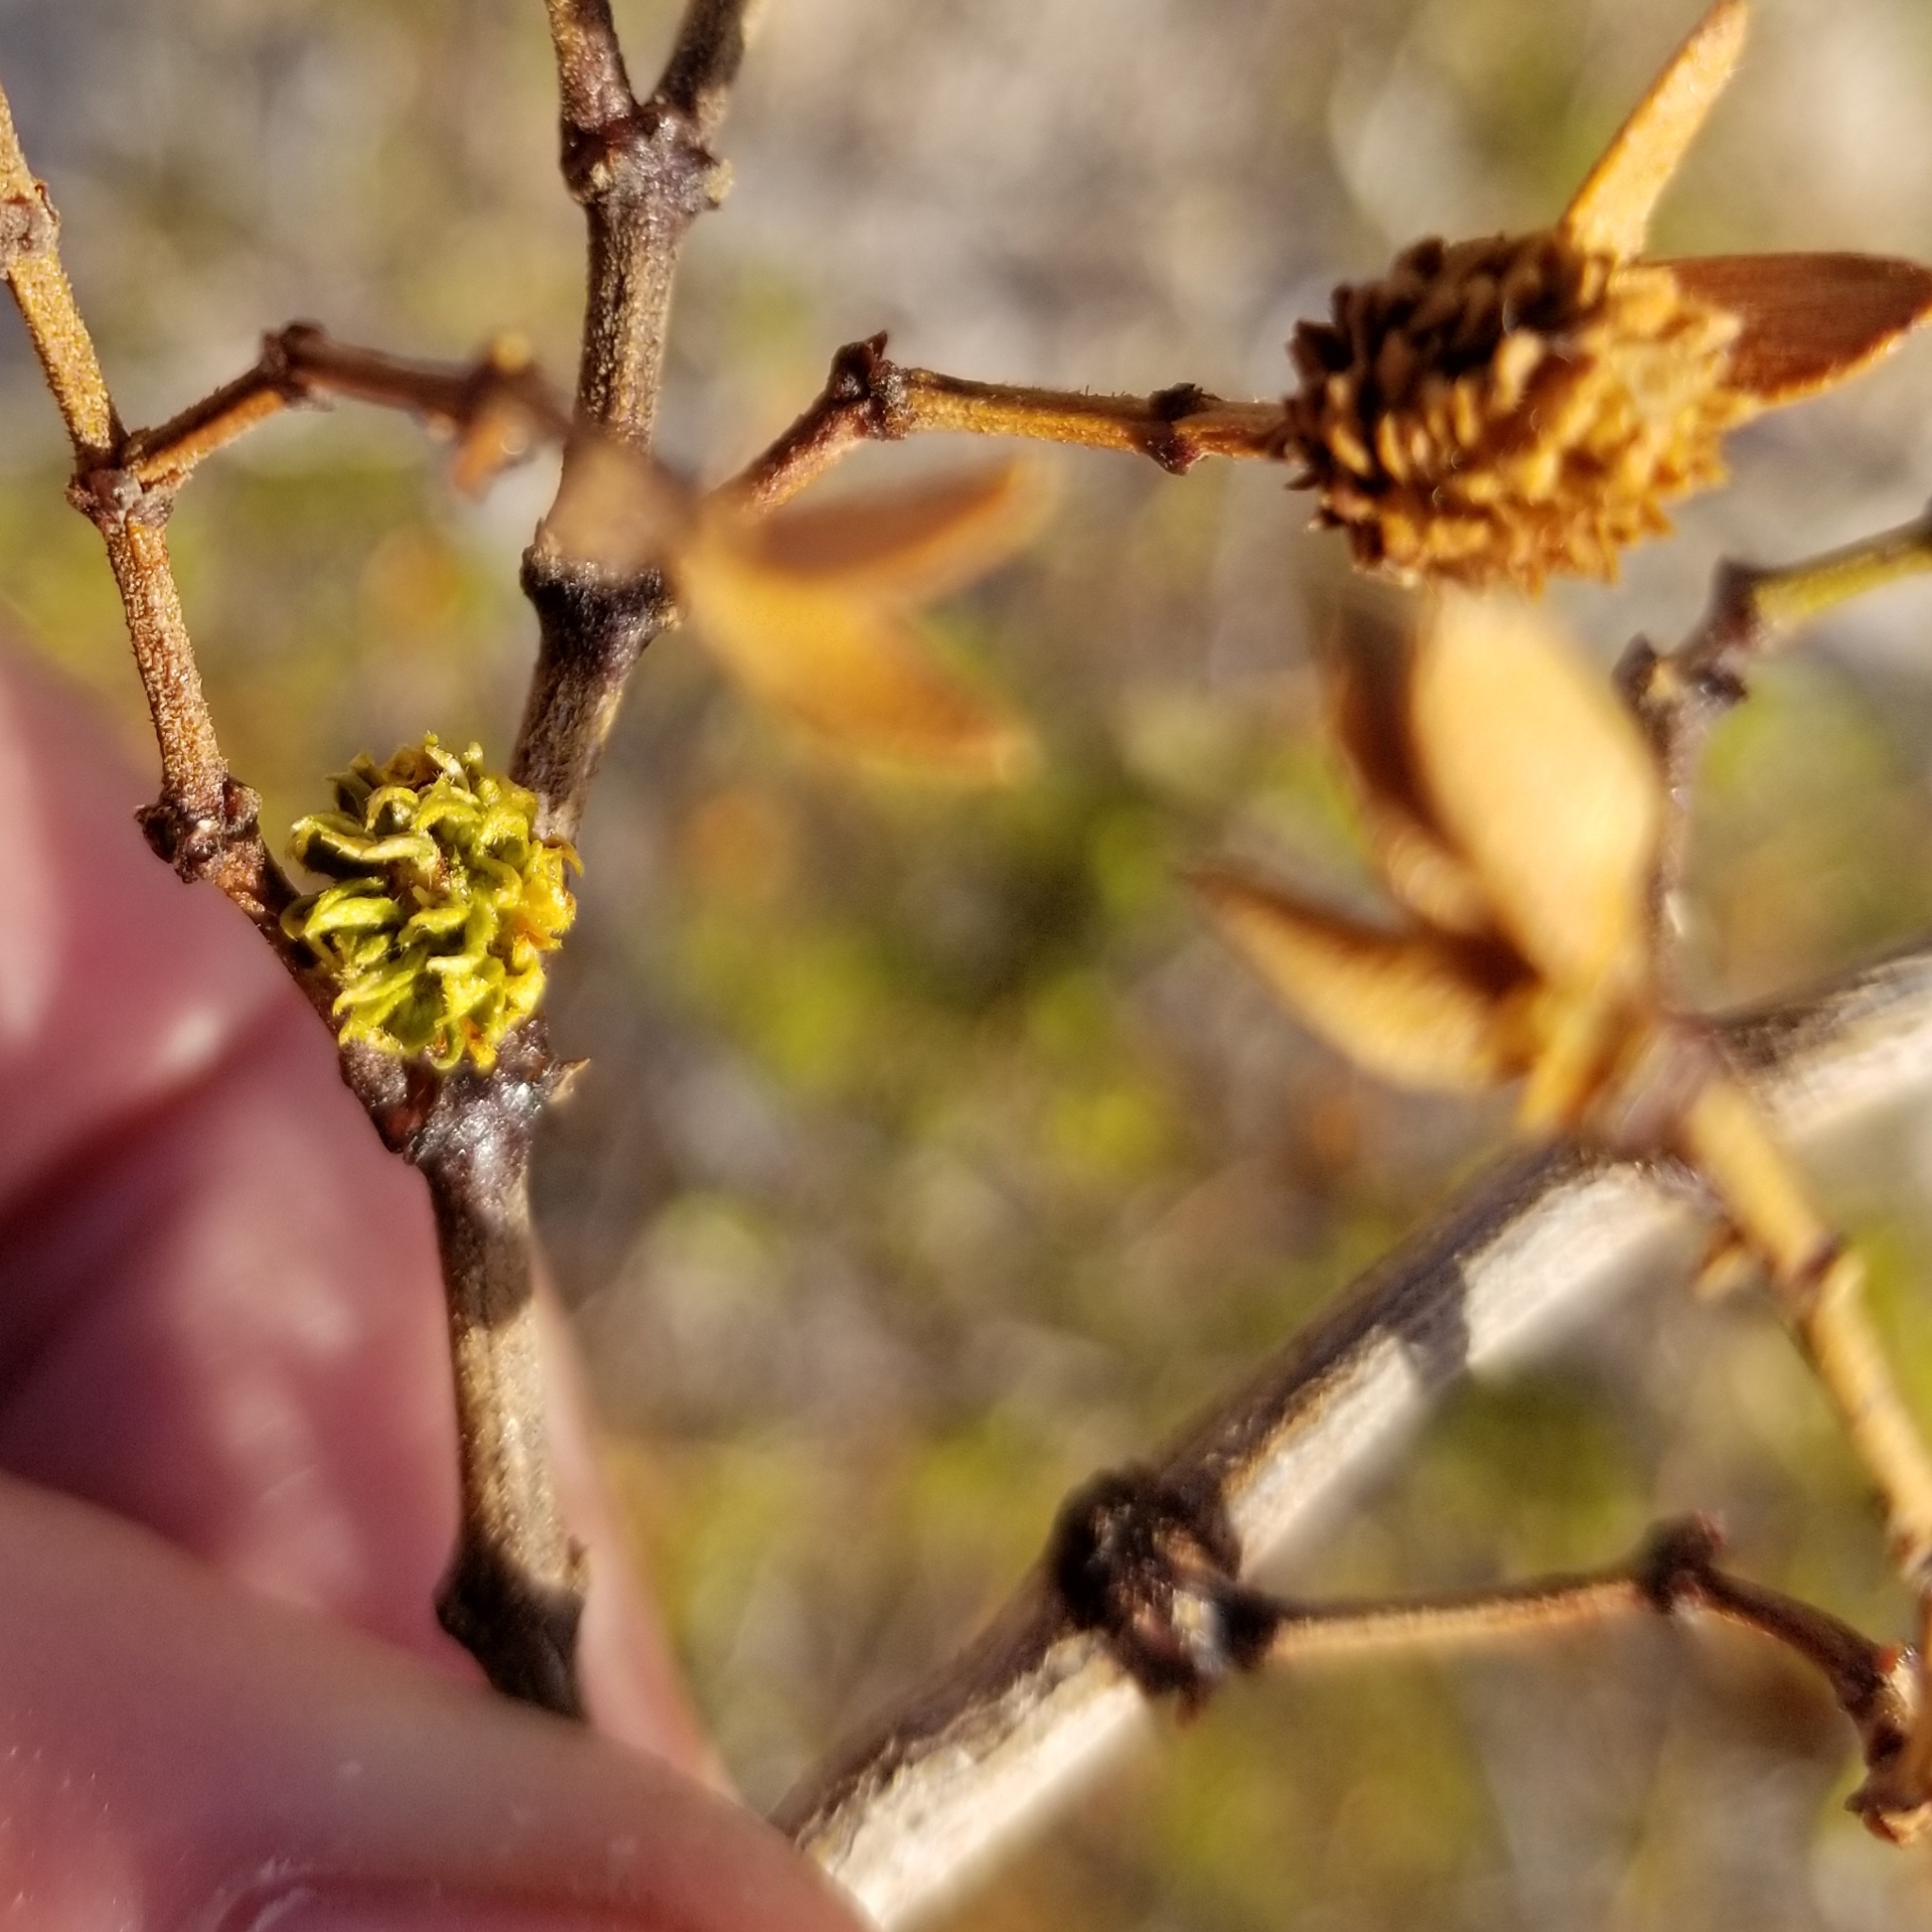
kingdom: Animalia
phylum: Arthropoda
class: Insecta
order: Diptera
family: Cecidomyiidae
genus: Asphondylia
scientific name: Asphondylia foliosa
